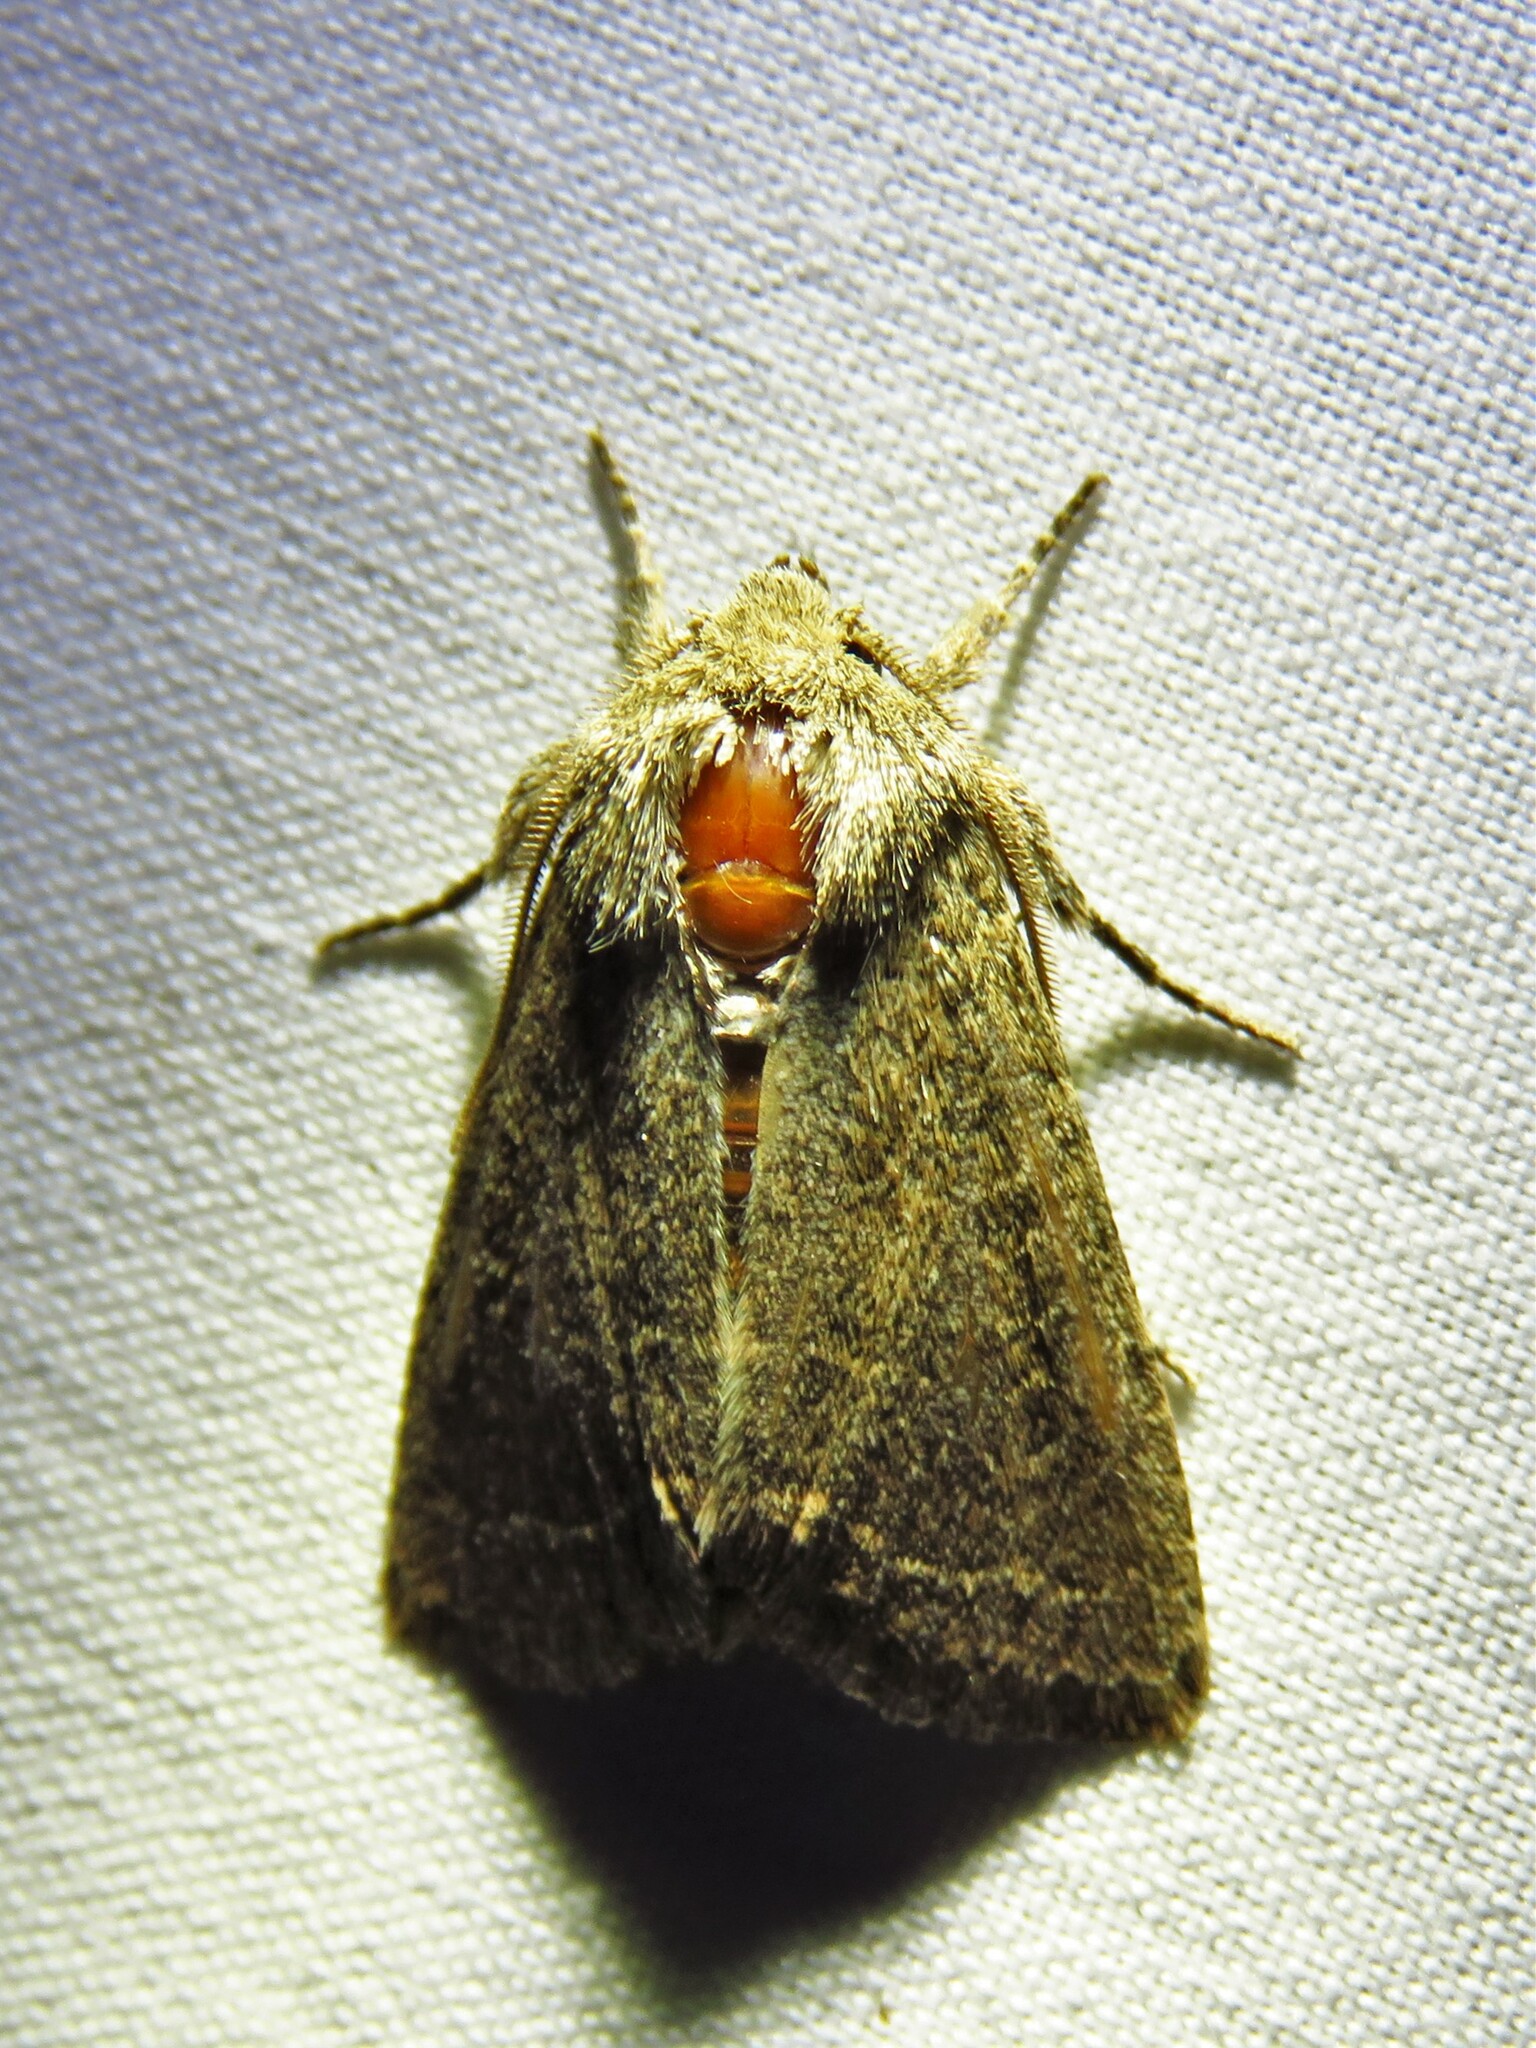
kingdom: Animalia
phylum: Arthropoda
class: Insecta
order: Lepidoptera
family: Noctuidae
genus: Trichopolia
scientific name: Trichopolia
